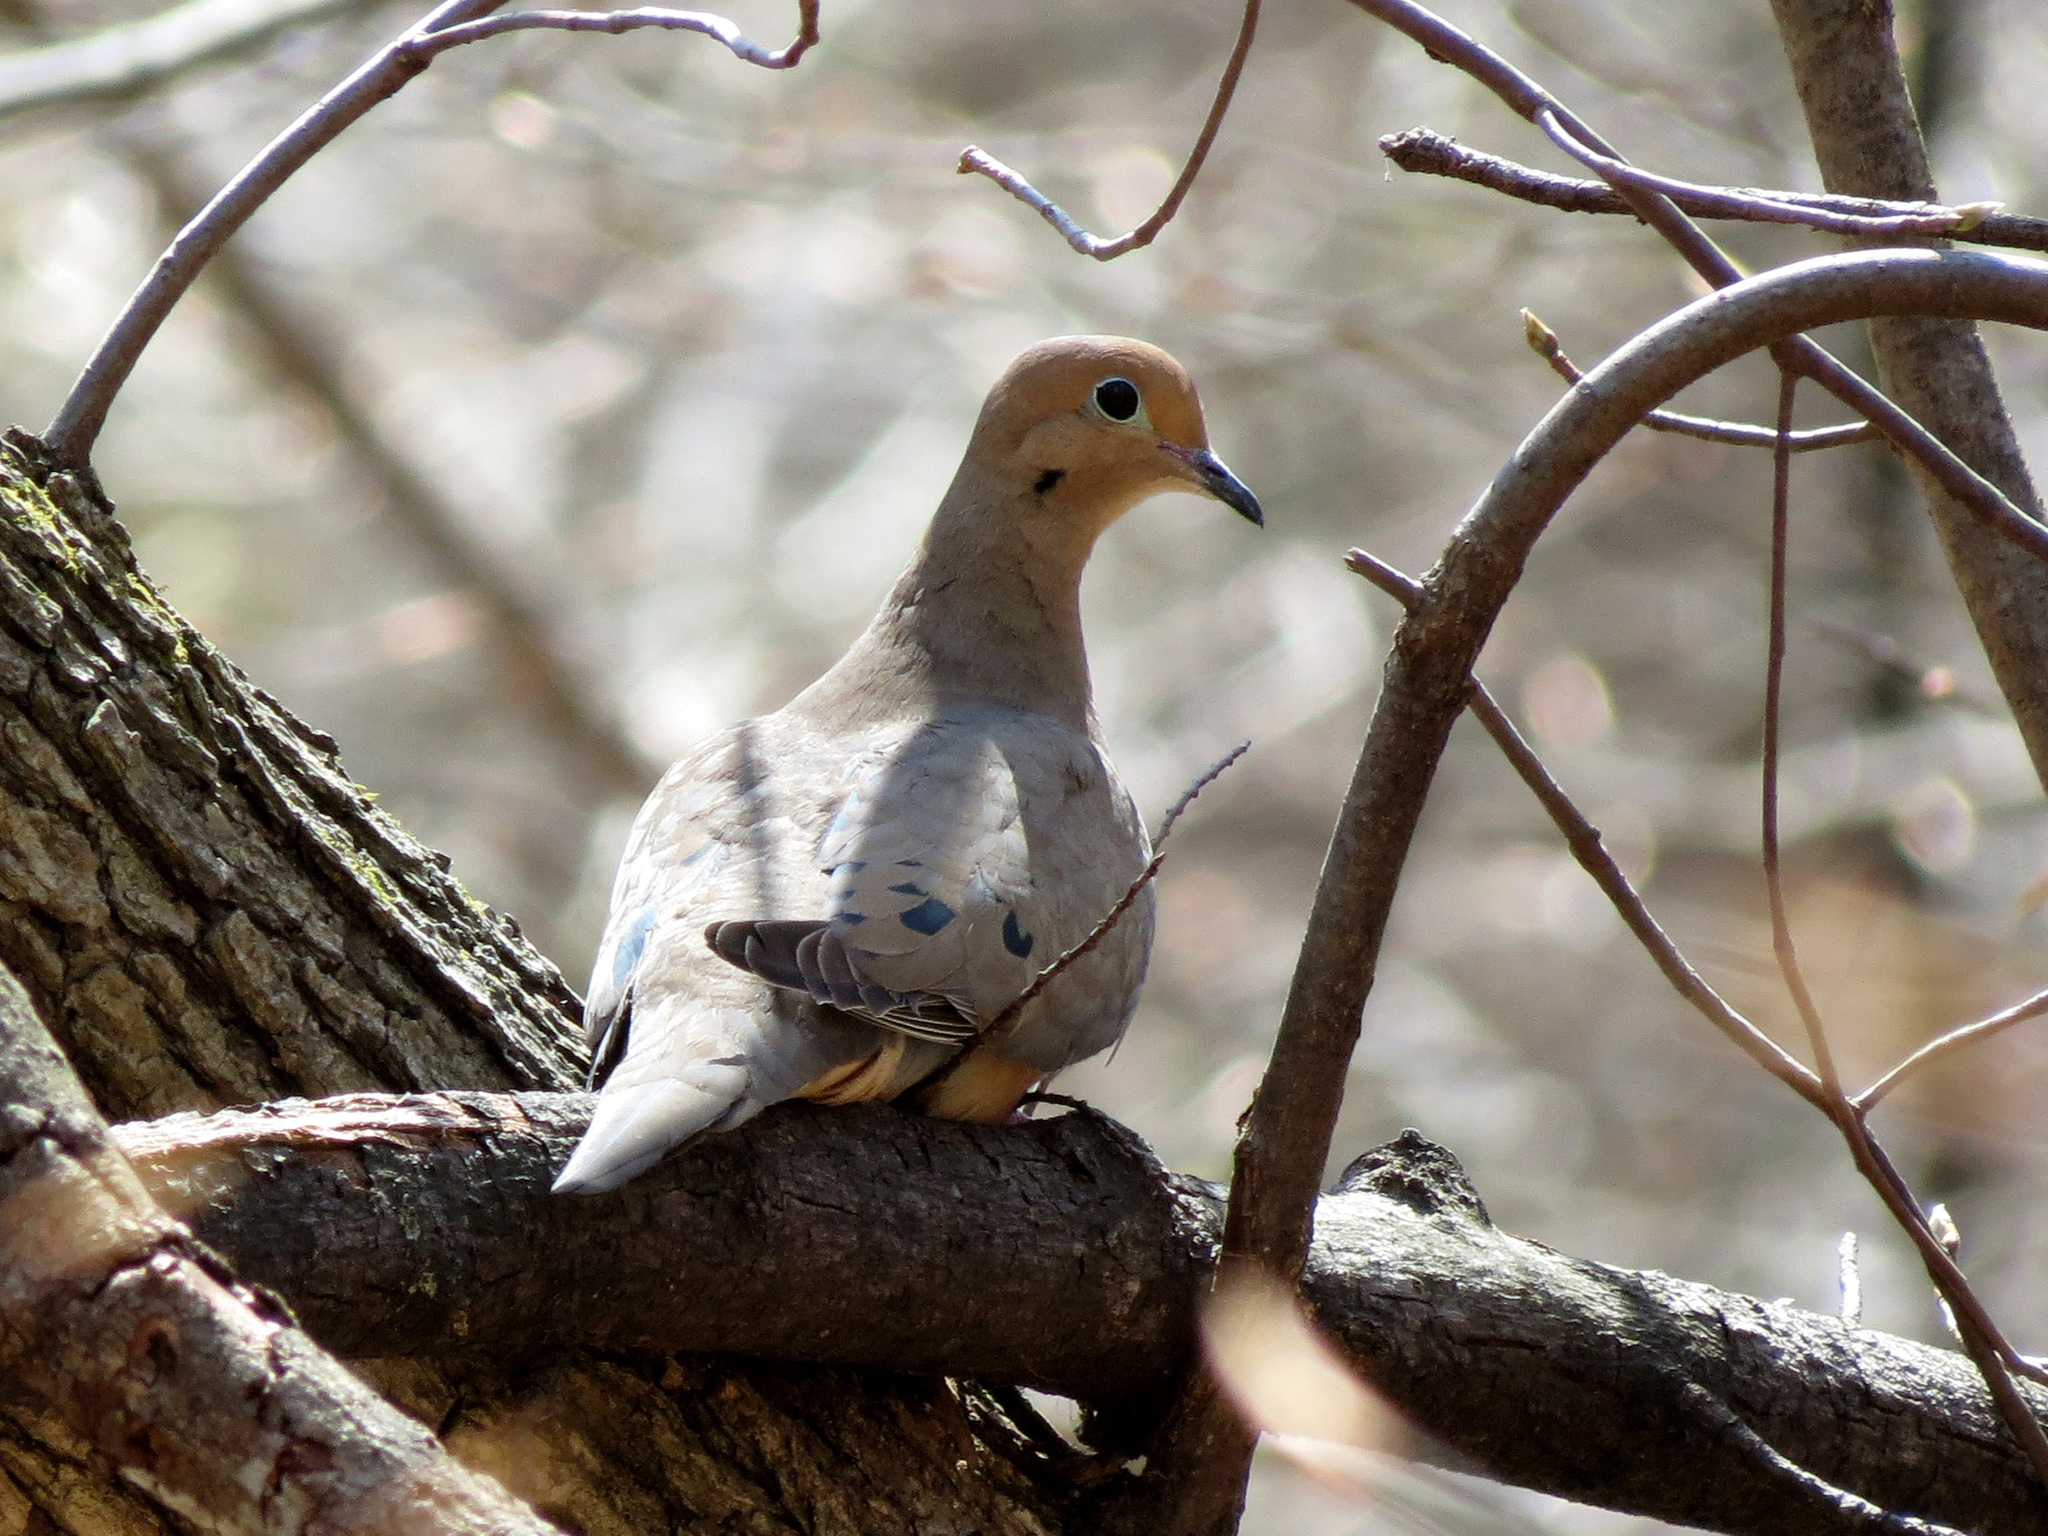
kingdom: Animalia
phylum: Chordata
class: Aves
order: Columbiformes
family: Columbidae
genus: Zenaida
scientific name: Zenaida macroura
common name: Mourning dove
